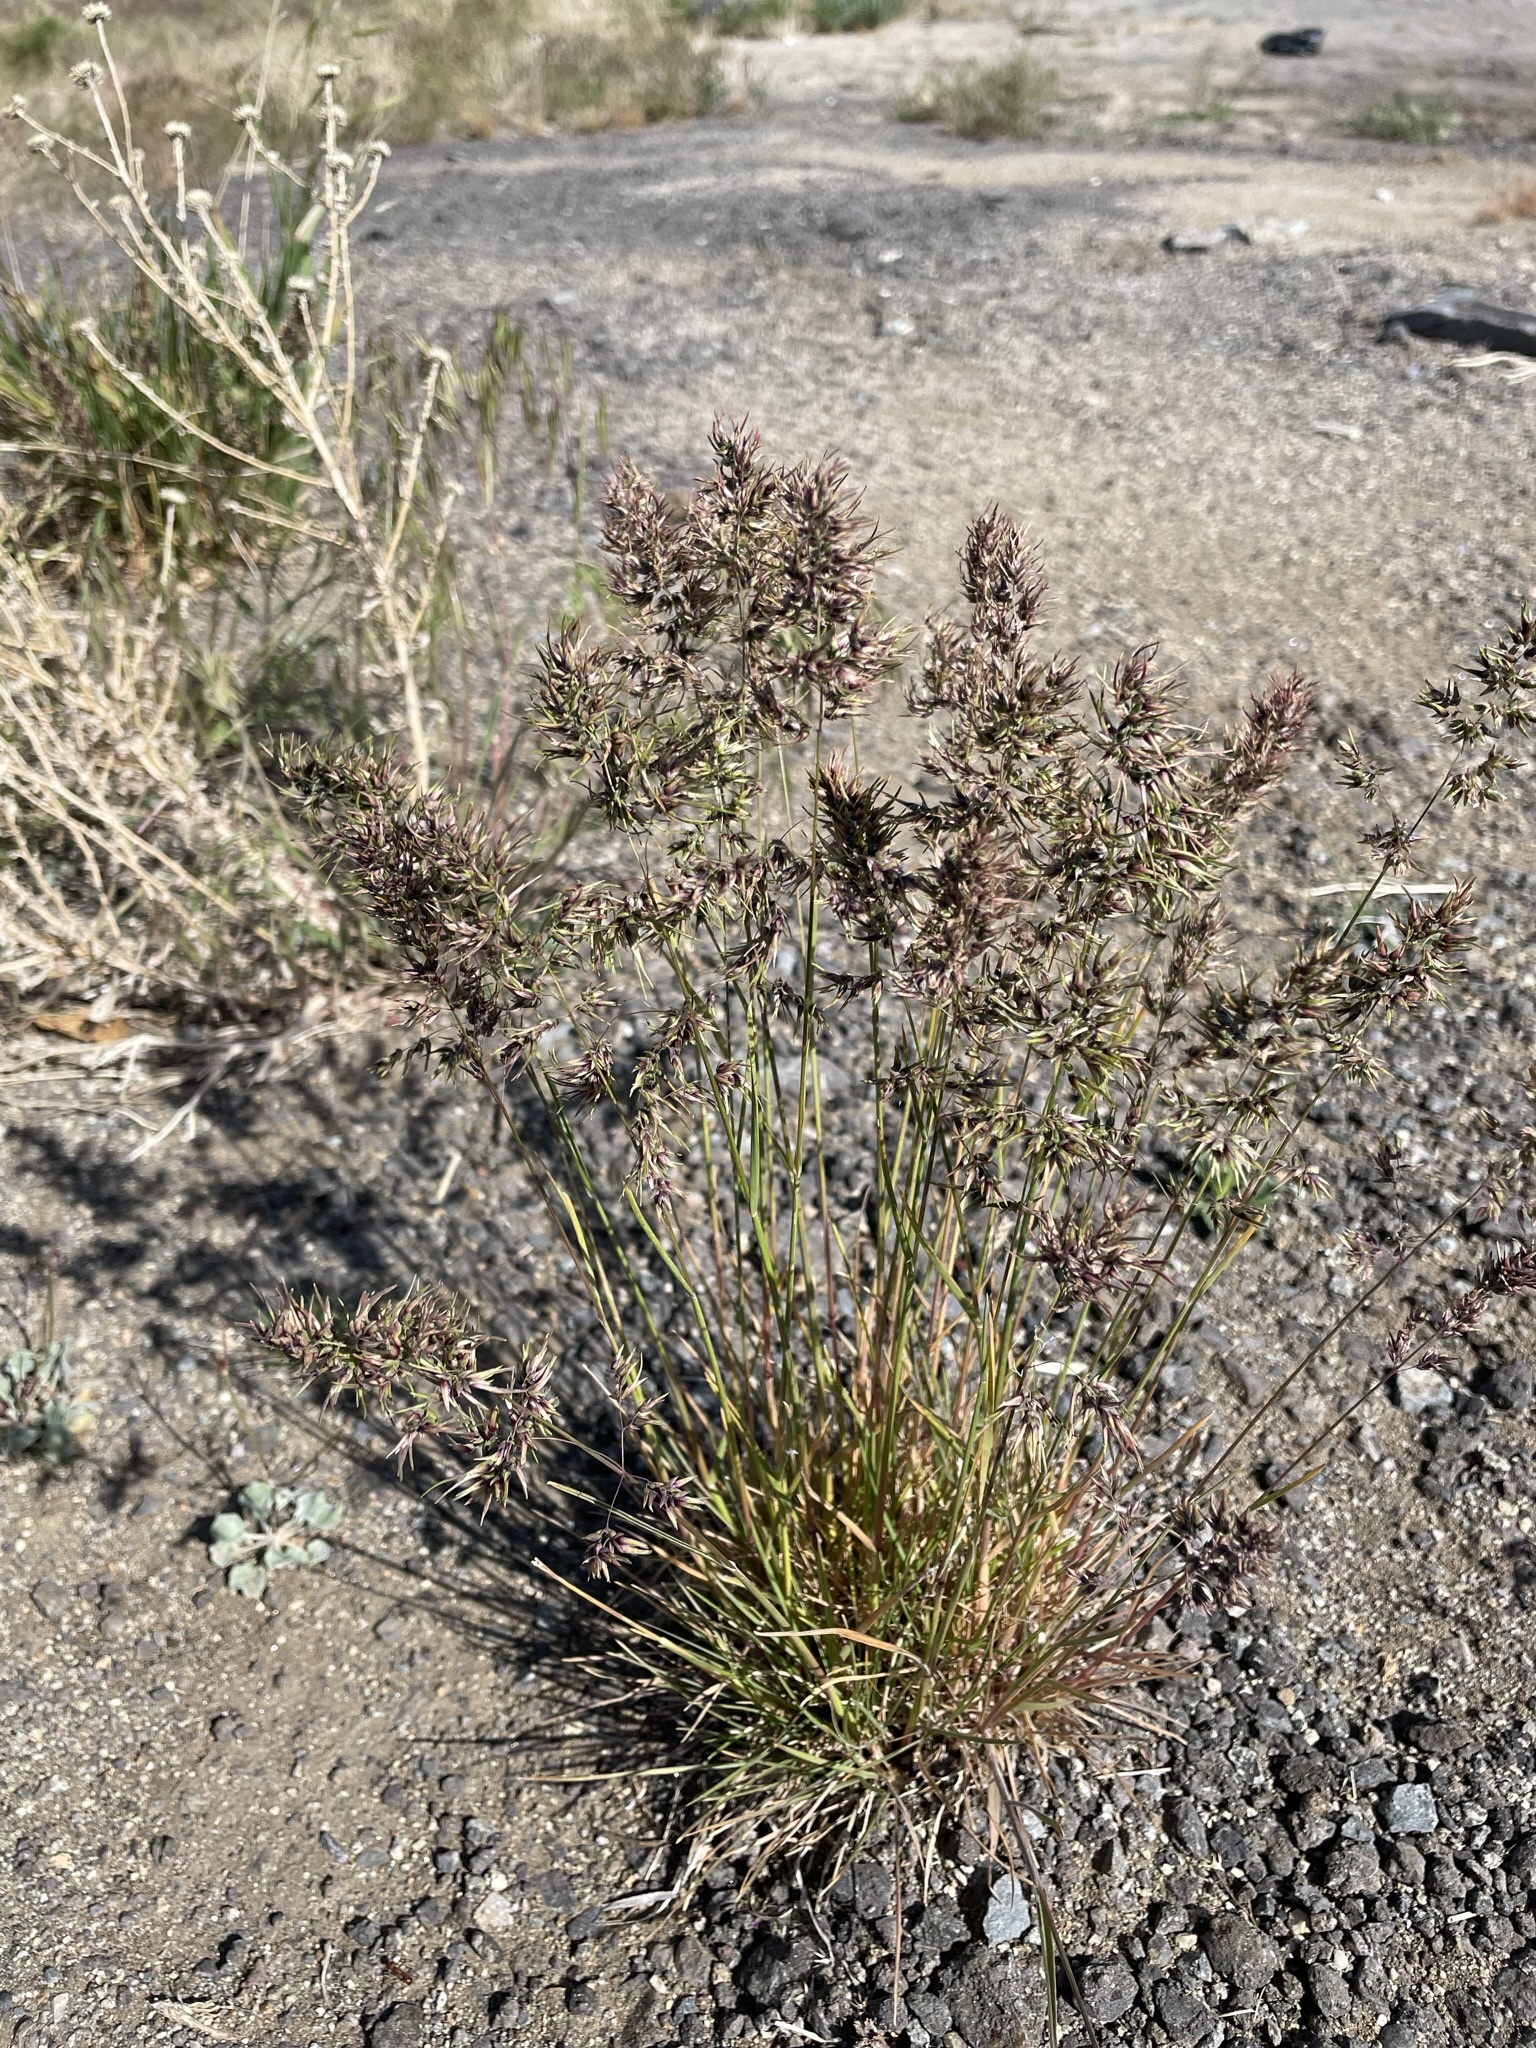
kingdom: Plantae
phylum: Tracheophyta
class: Liliopsida
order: Poales
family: Poaceae
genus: Poa
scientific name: Poa bulbosa
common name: Bulbous bluegrass
